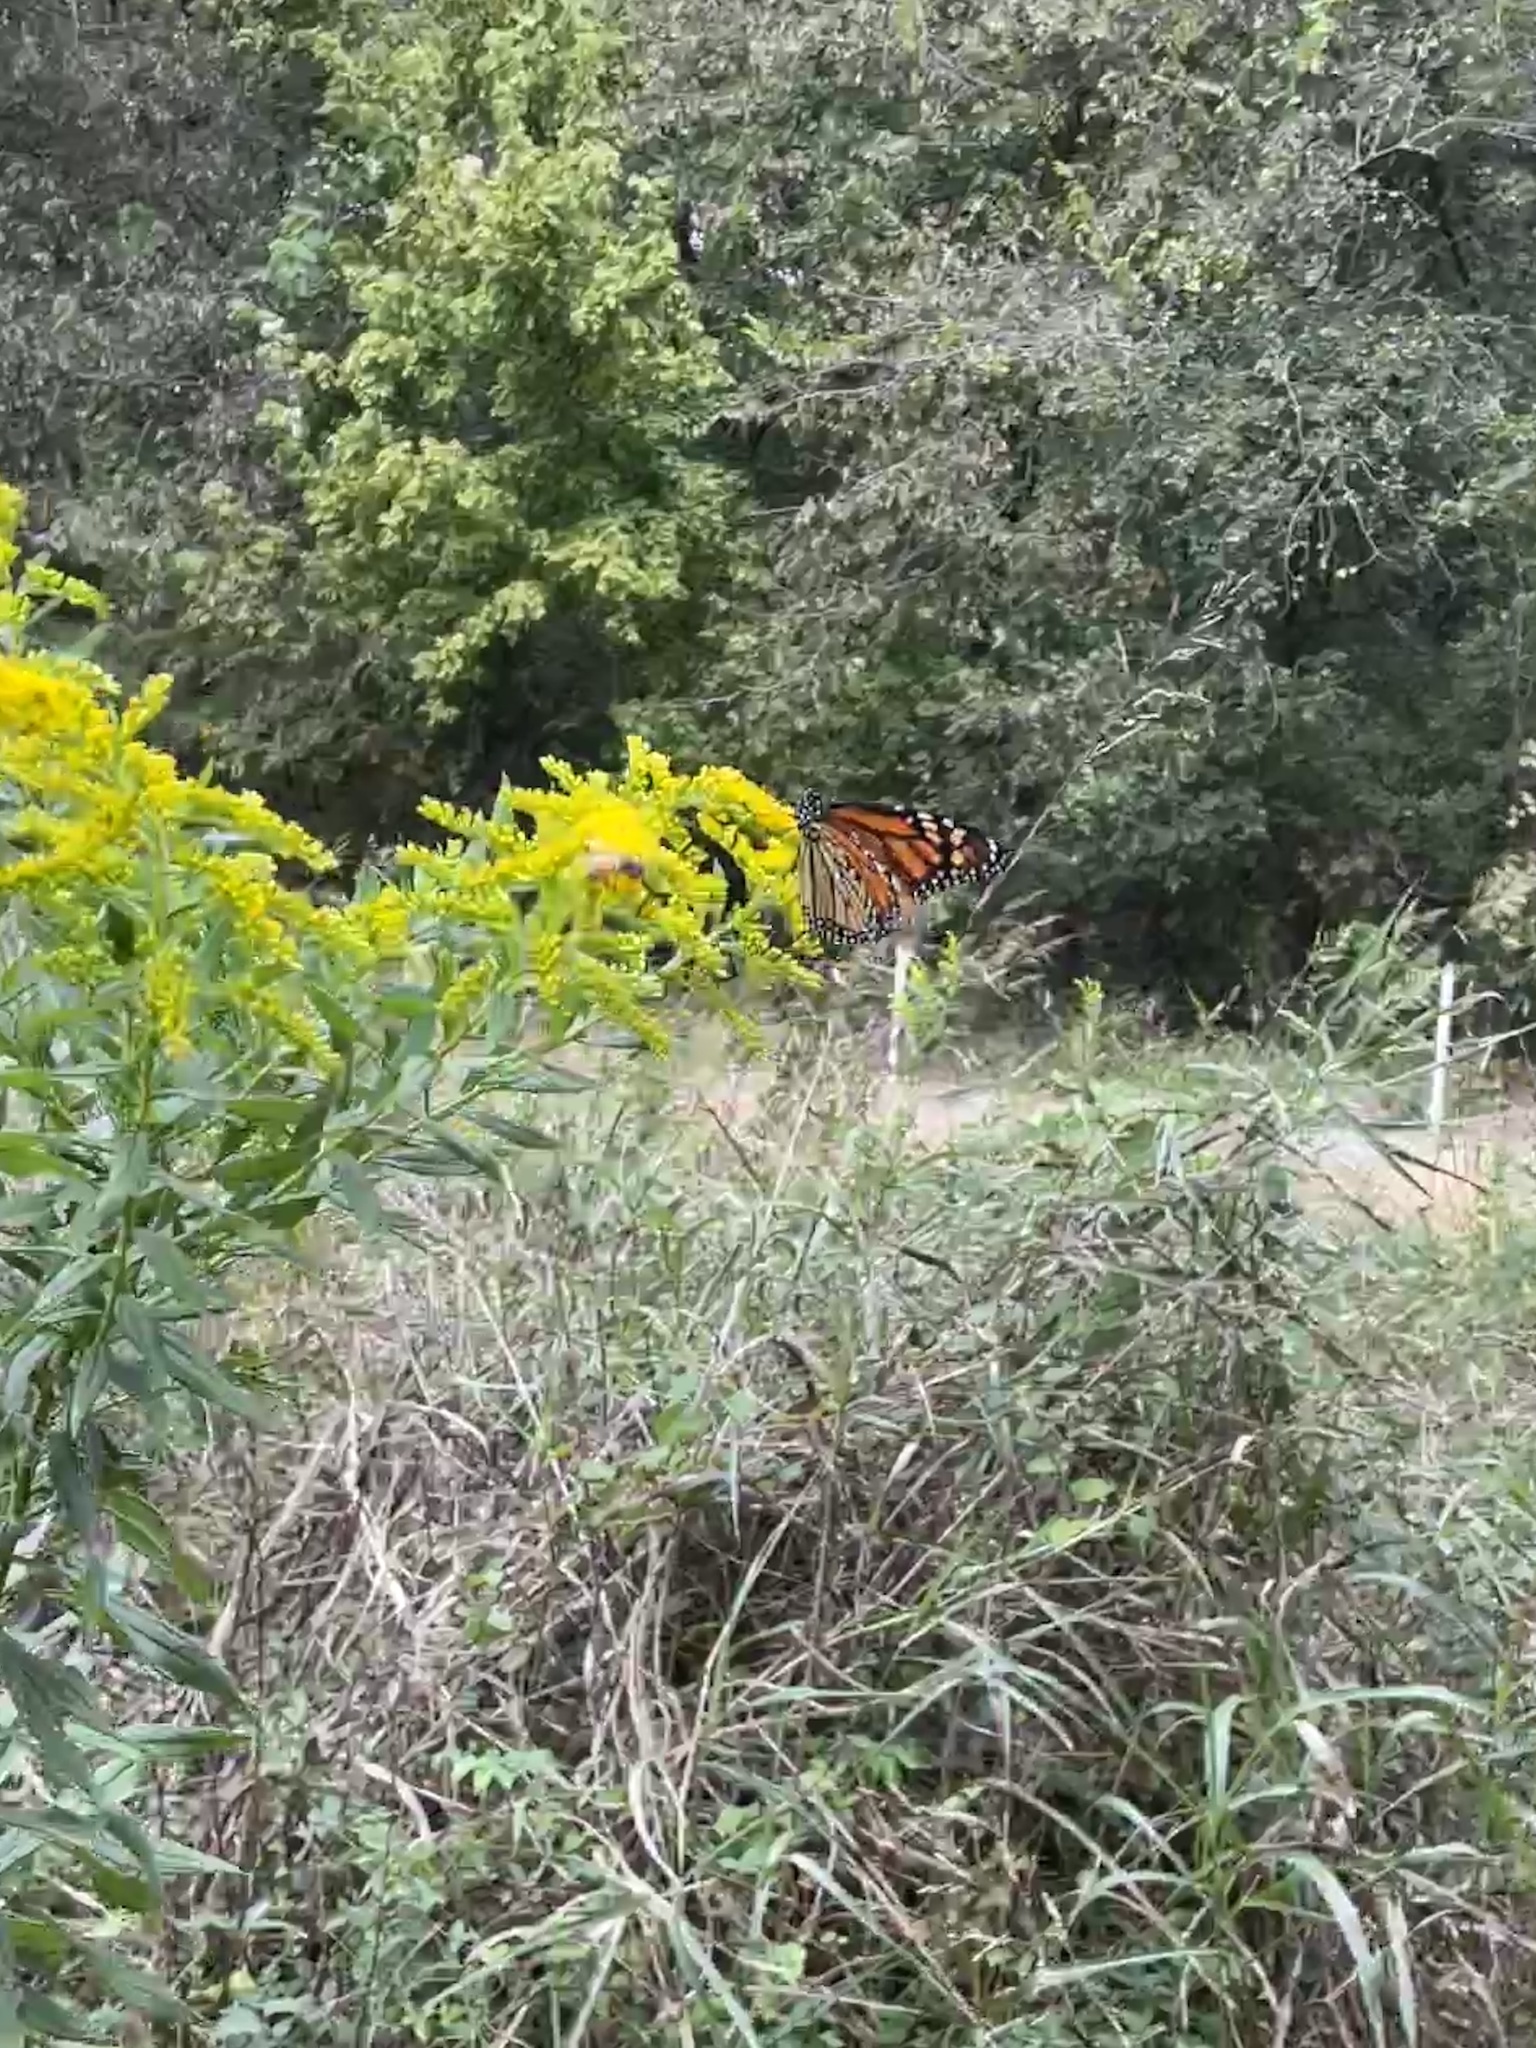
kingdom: Animalia
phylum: Arthropoda
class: Insecta
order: Lepidoptera
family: Nymphalidae
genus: Danaus
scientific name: Danaus plexippus
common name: Monarch
